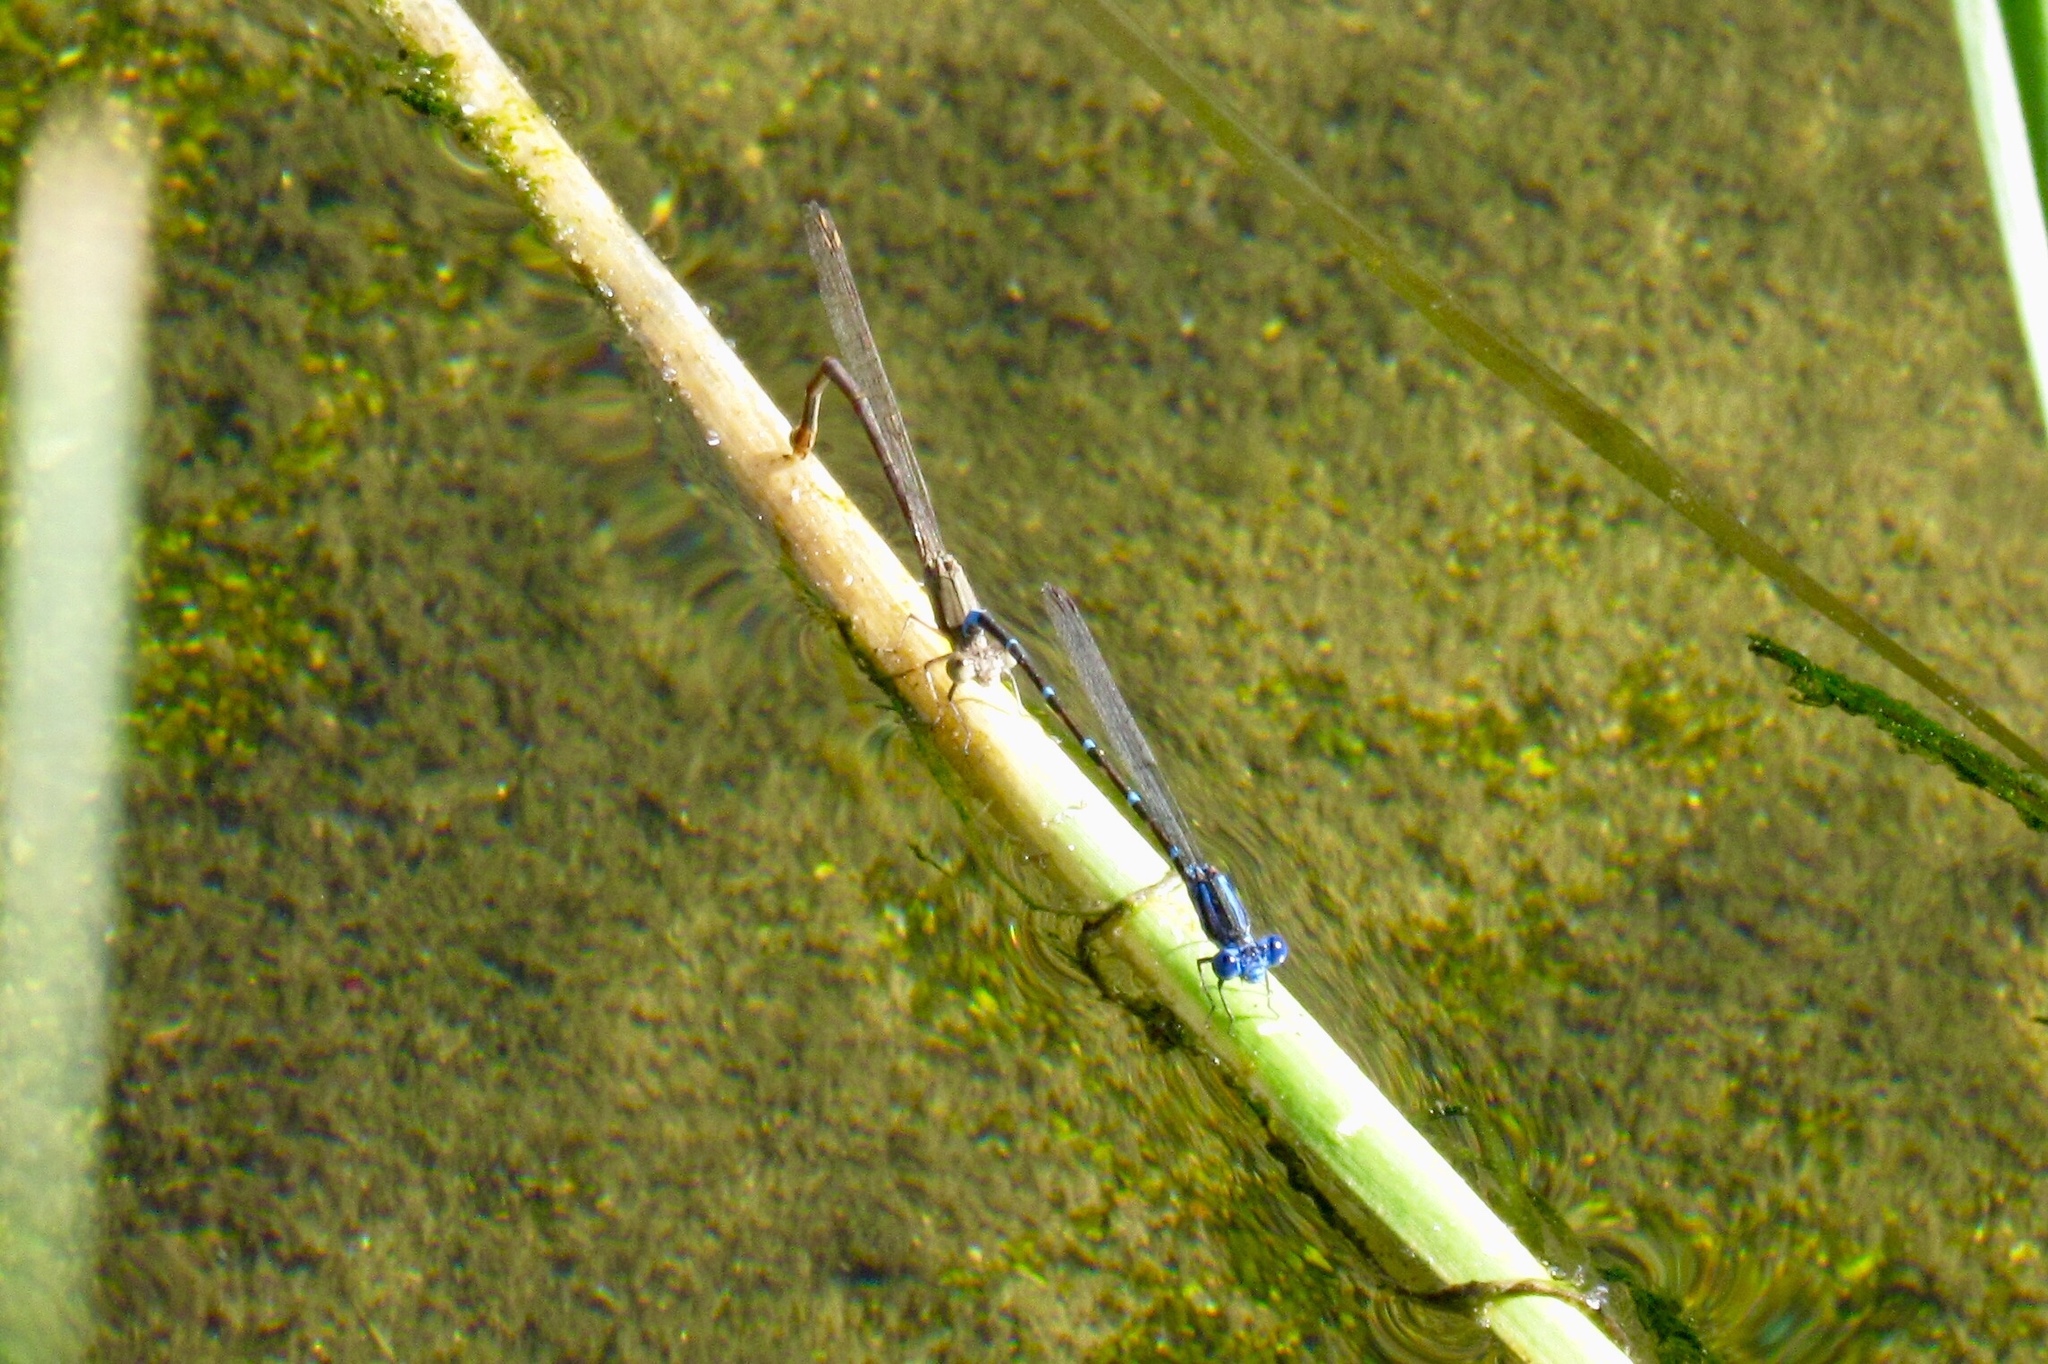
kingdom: Animalia
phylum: Arthropoda
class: Insecta
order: Odonata
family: Coenagrionidae
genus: Argia
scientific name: Argia sedula
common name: Blue-ringed dancer
